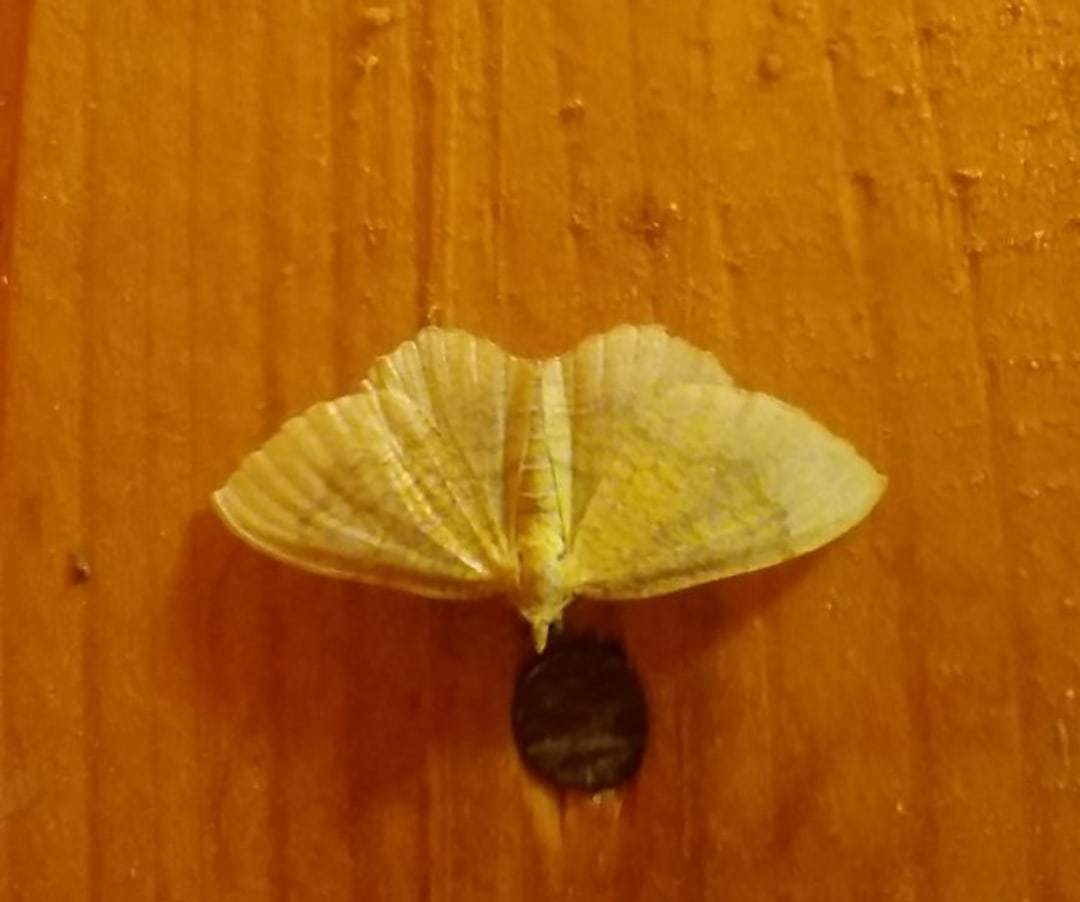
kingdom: Animalia
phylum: Arthropoda
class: Insecta
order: Lepidoptera
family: Geometridae
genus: Camptogramma
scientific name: Camptogramma bilineata
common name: Yellow shell
